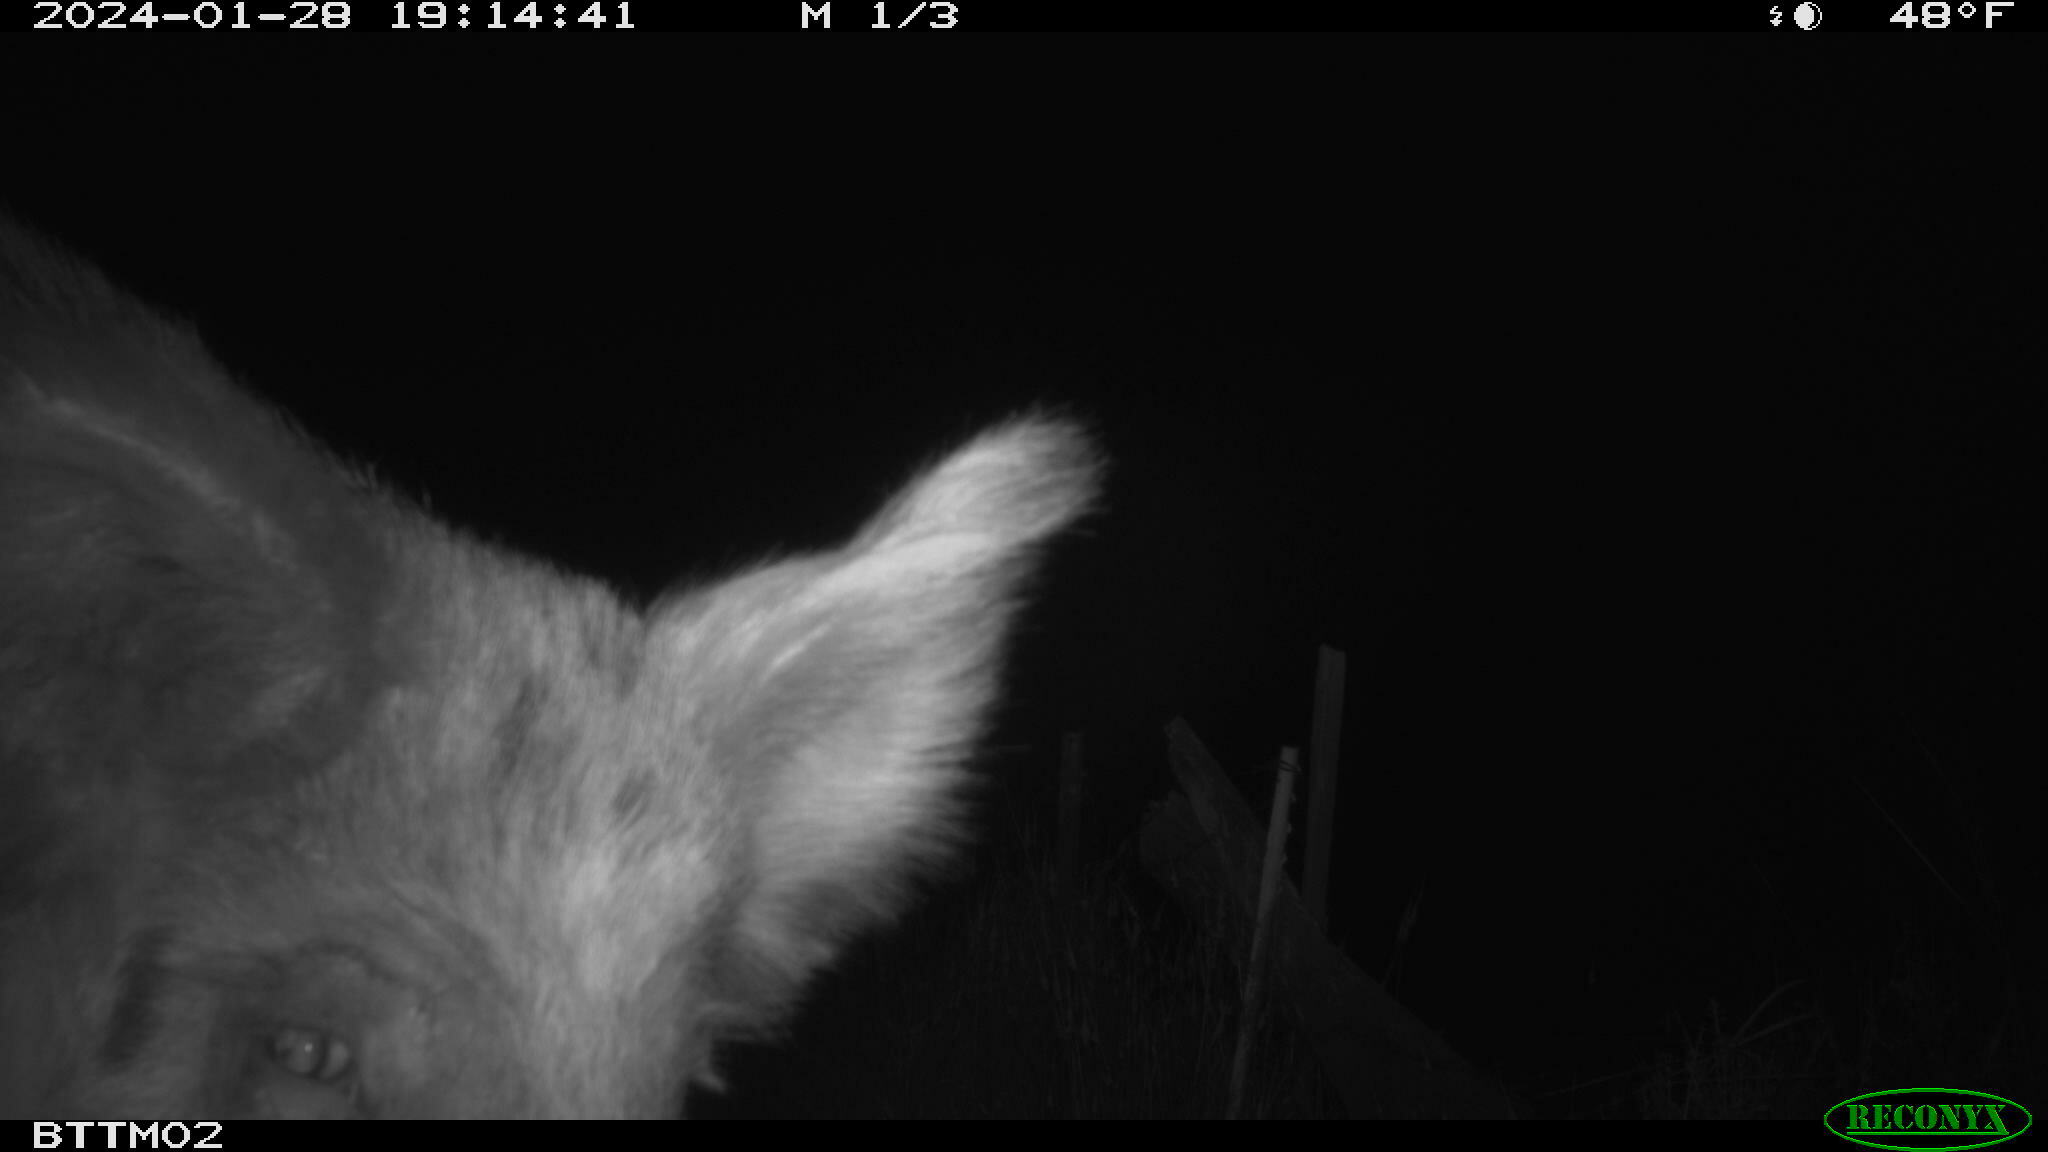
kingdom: Animalia
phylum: Chordata
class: Mammalia
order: Artiodactyla
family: Suidae
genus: Sus
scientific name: Sus scrofa
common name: Wild boar
